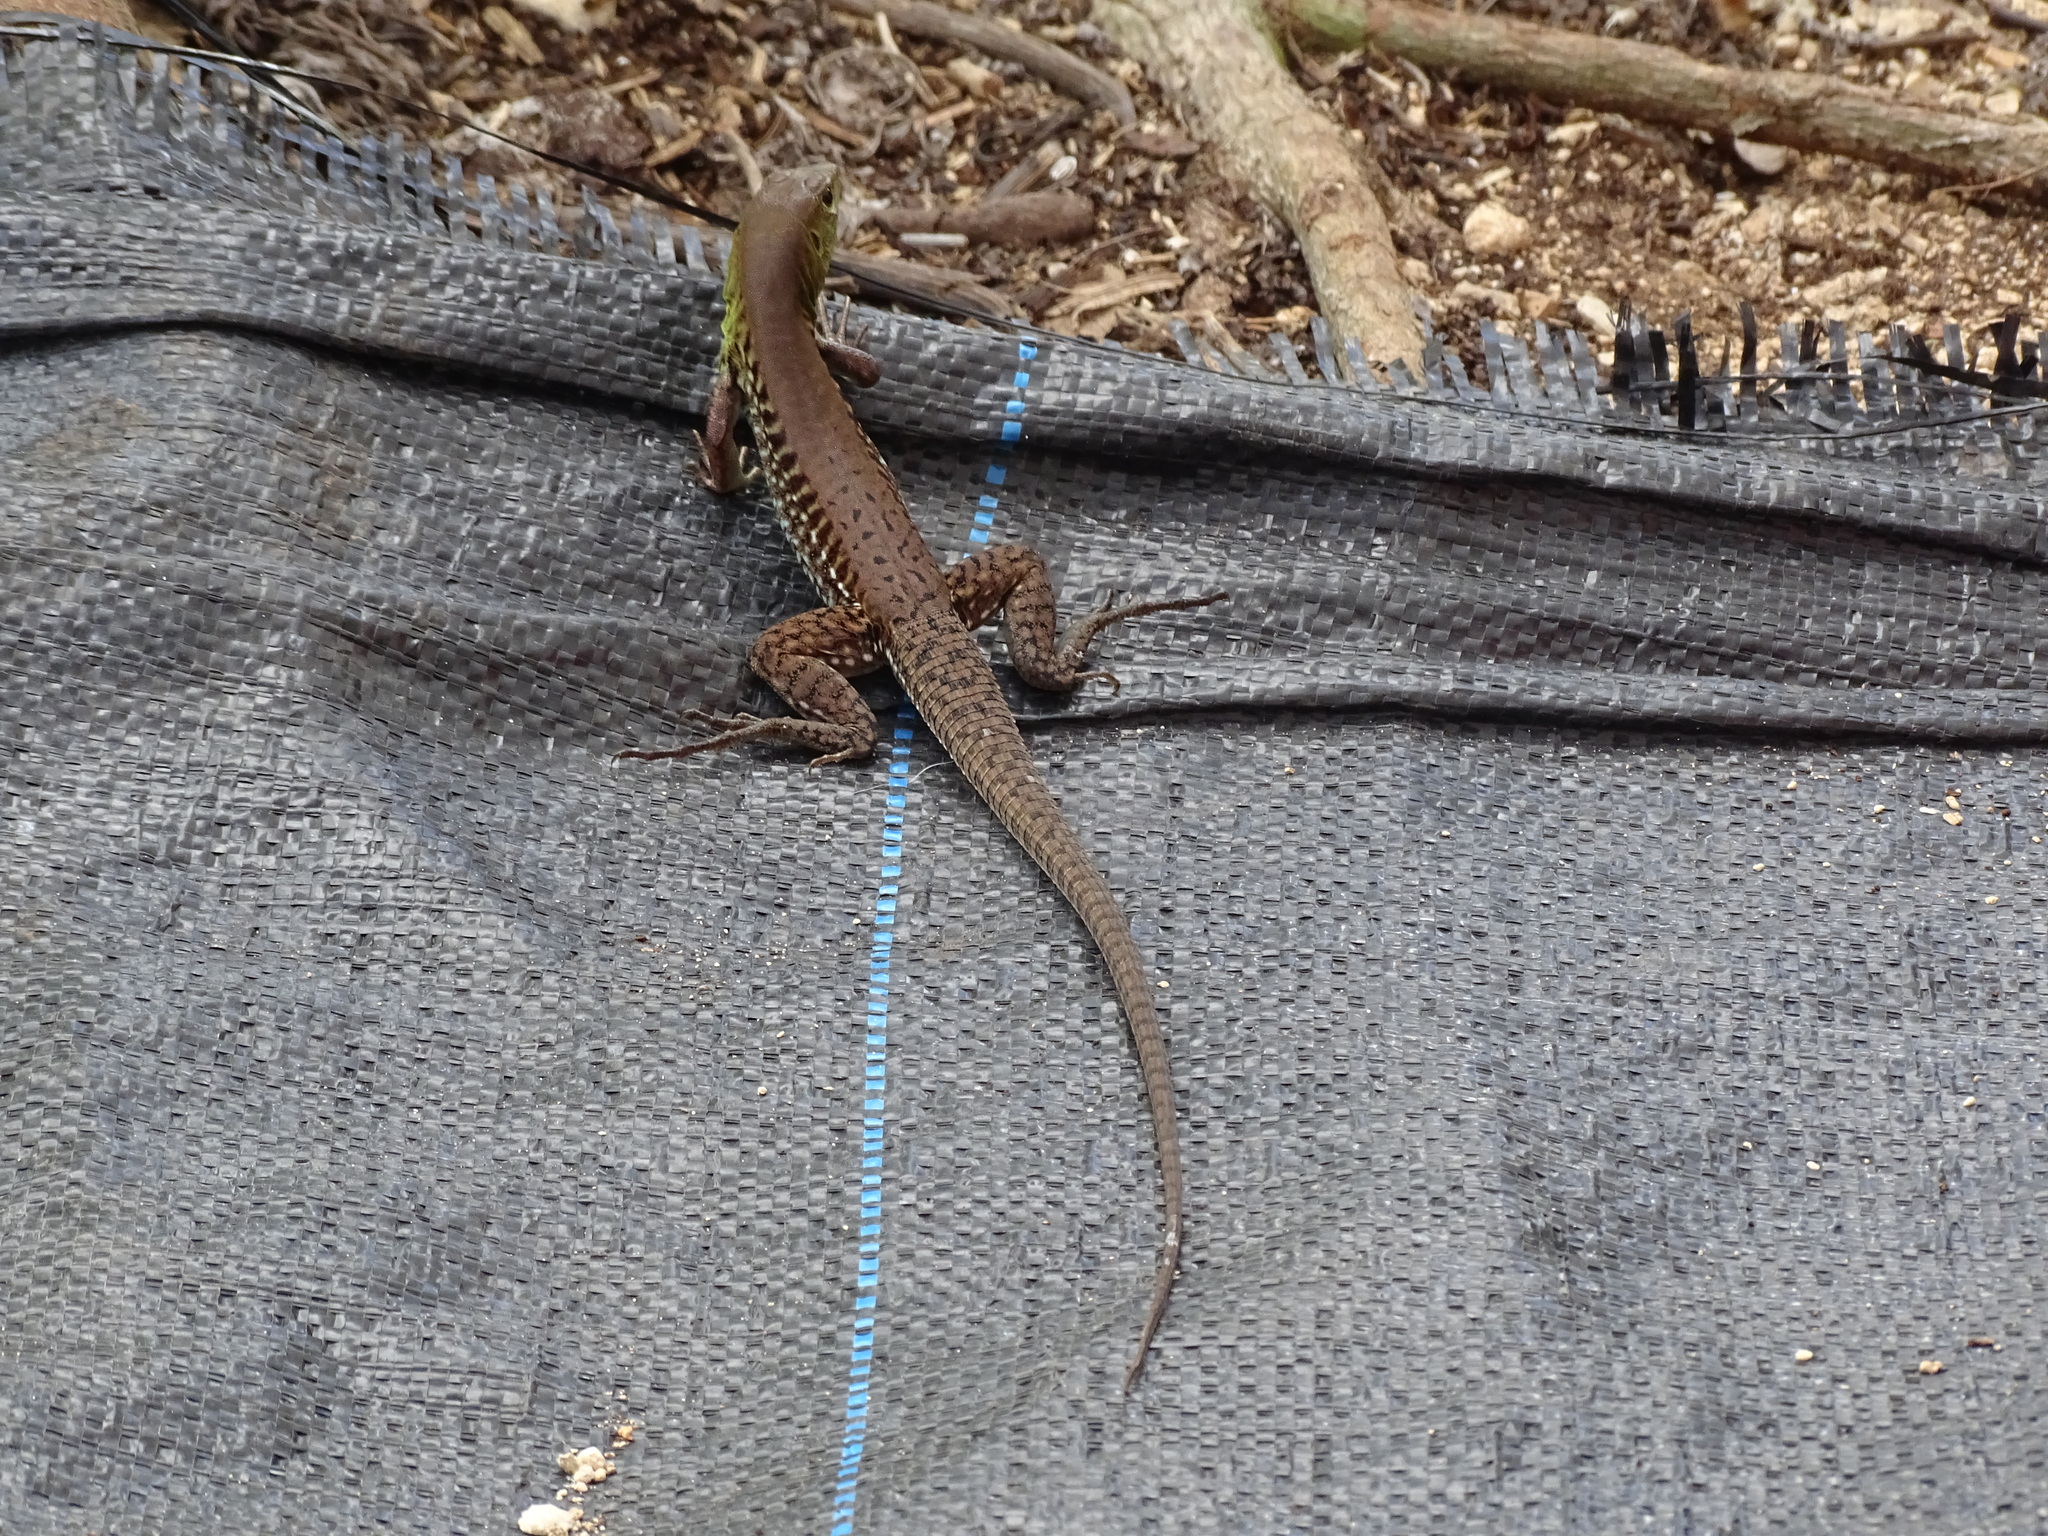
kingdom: Animalia
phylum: Chordata
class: Squamata
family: Teiidae
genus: Holcosus
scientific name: Holcosus undulatus
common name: Rainbow ameiva
